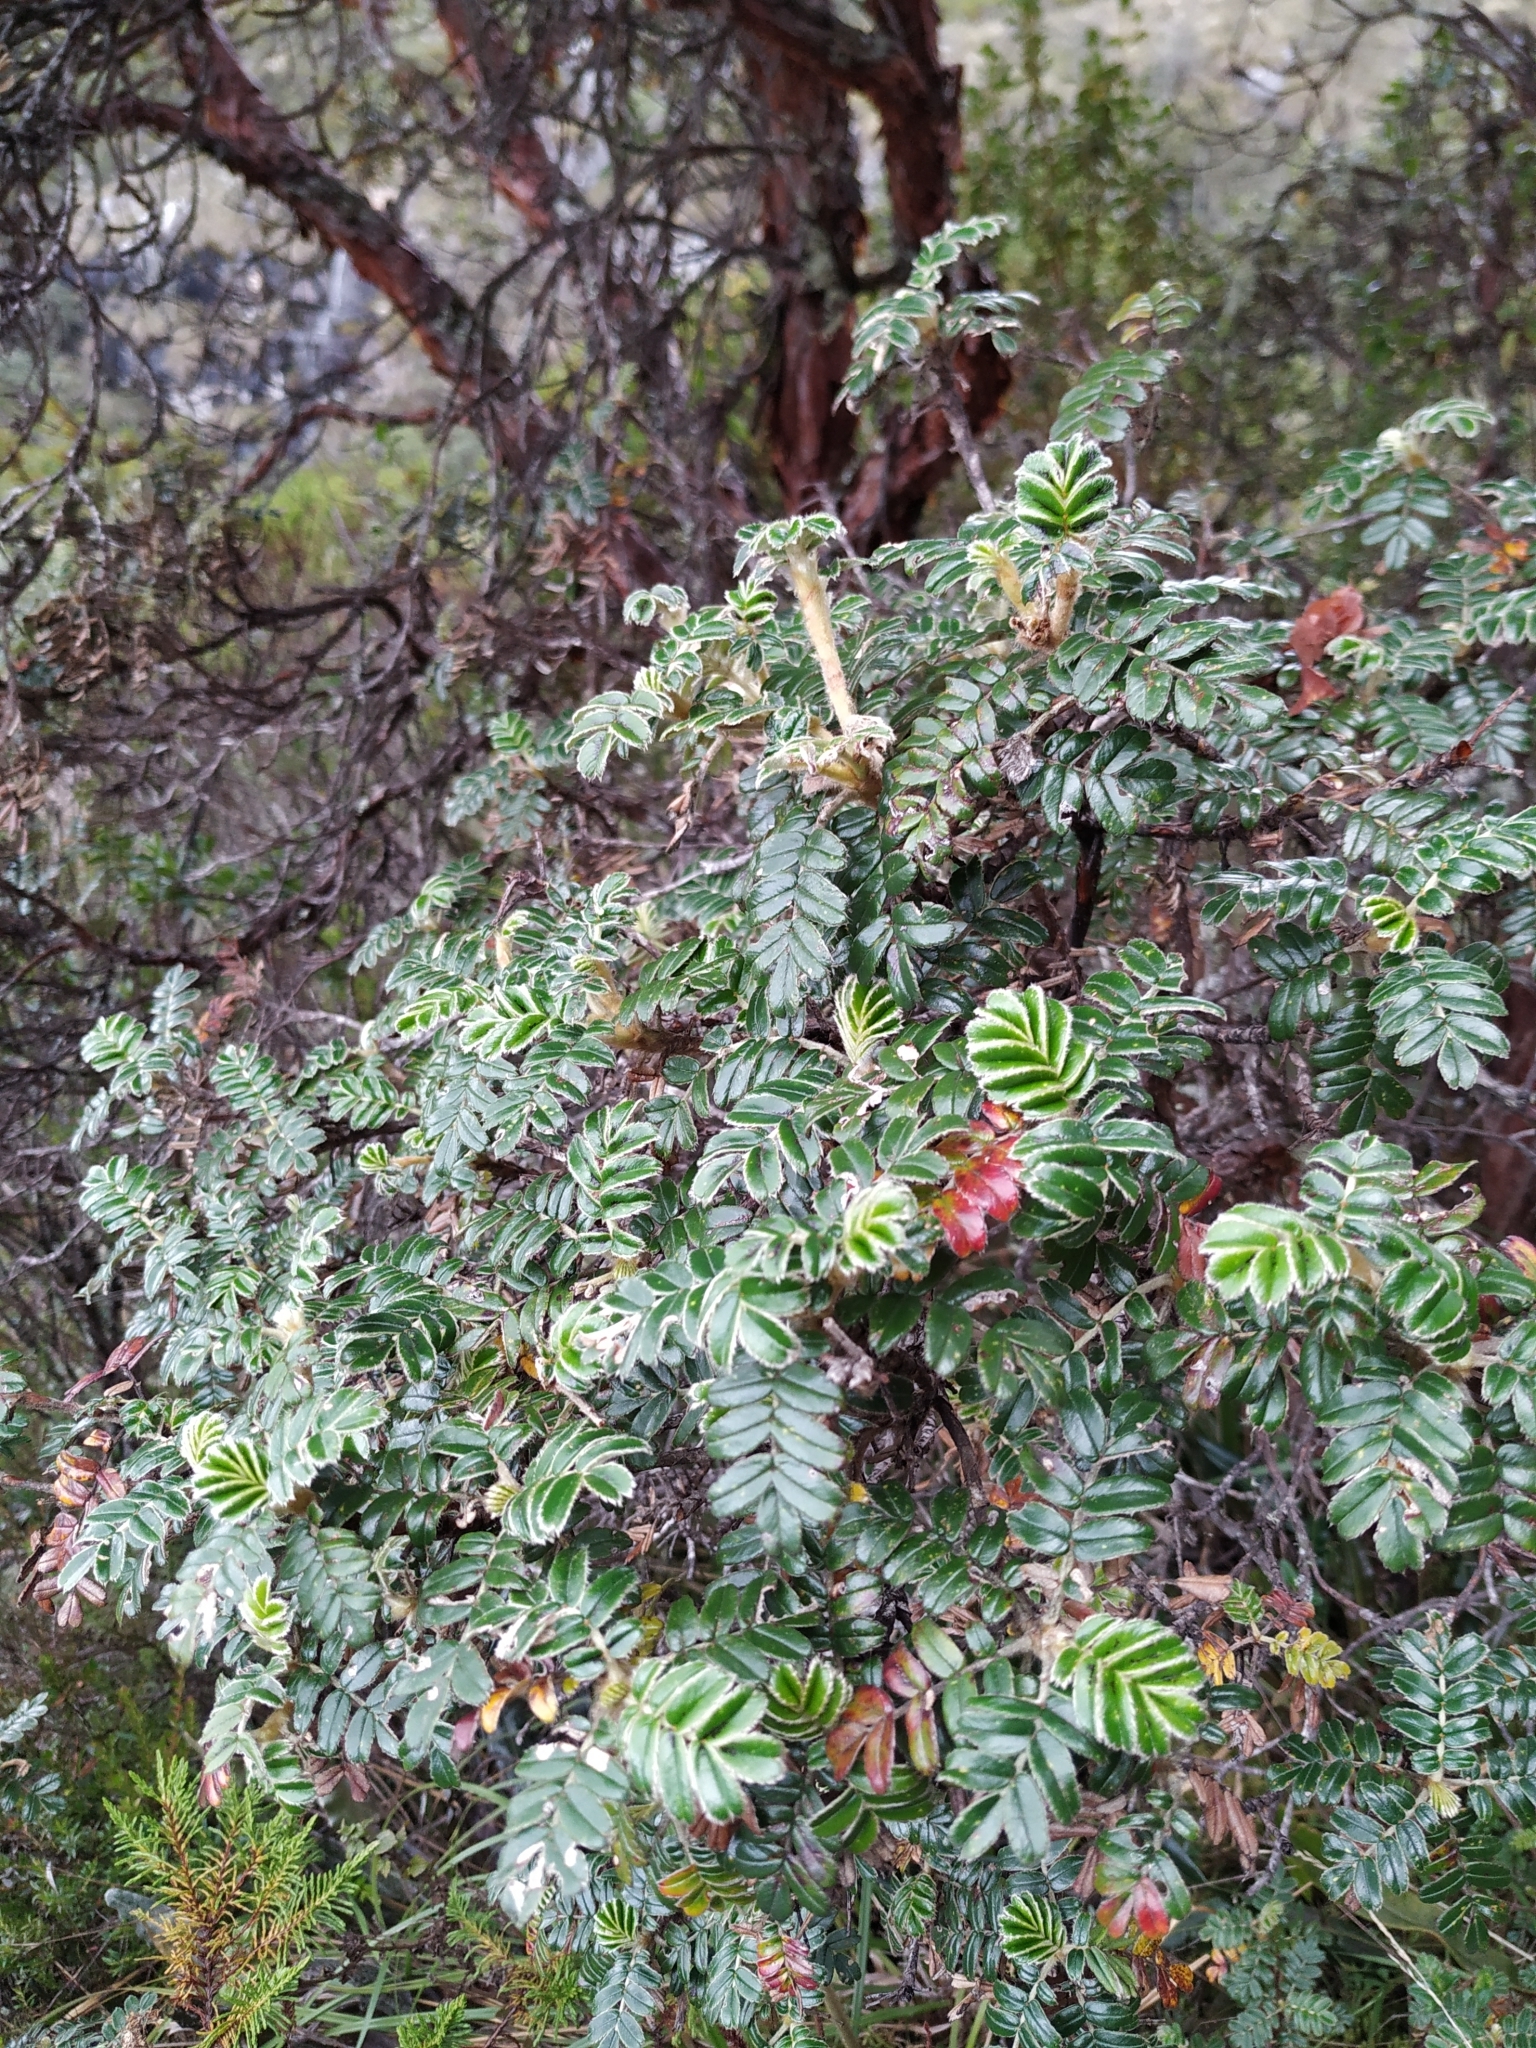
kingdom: Plantae
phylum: Tracheophyta
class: Magnoliopsida
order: Rosales
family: Rosaceae
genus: Polylepis
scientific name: Polylepis quadrijuga
